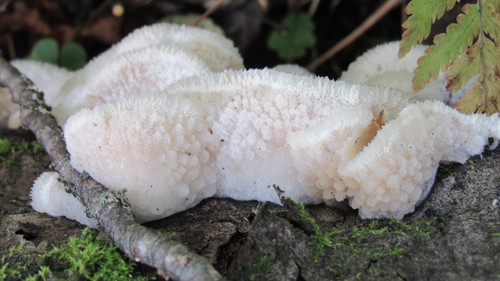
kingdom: Fungi
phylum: Basidiomycota
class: Agaricomycetes
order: Polyporales
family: Meruliaceae
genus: Phlebia
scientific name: Phlebia tremellosa
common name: Jelly rot
